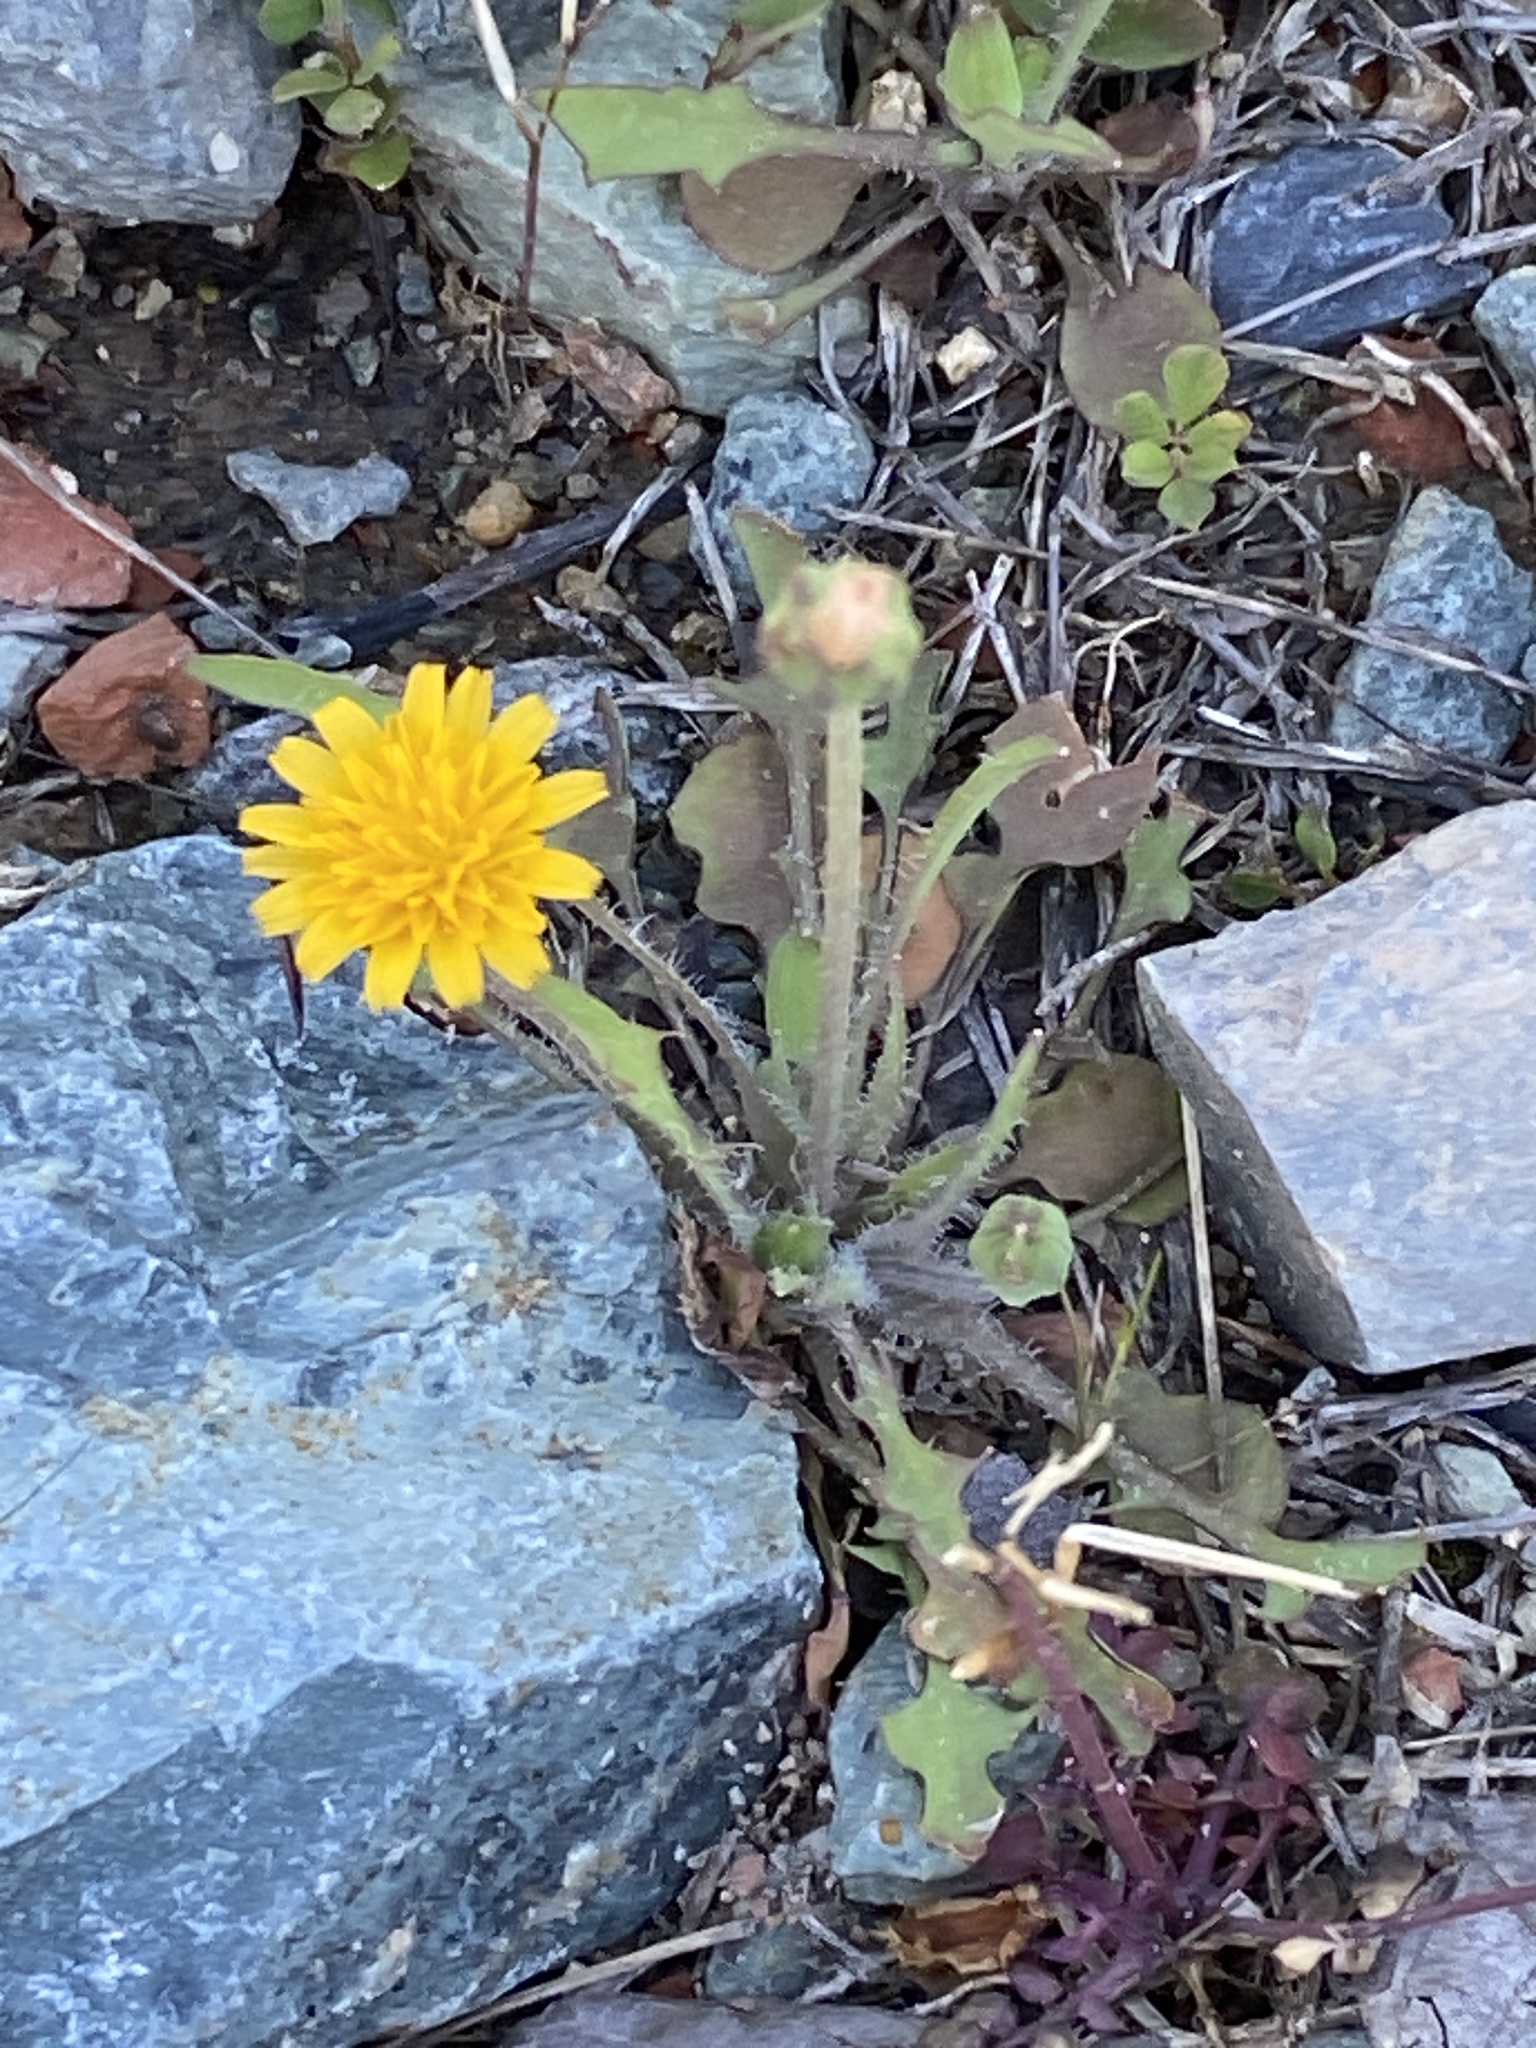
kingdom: Plantae
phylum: Tracheophyta
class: Magnoliopsida
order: Asterales
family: Asteraceae
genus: Krigia
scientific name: Krigia virginica
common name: Virginia dwarf-dandelion
